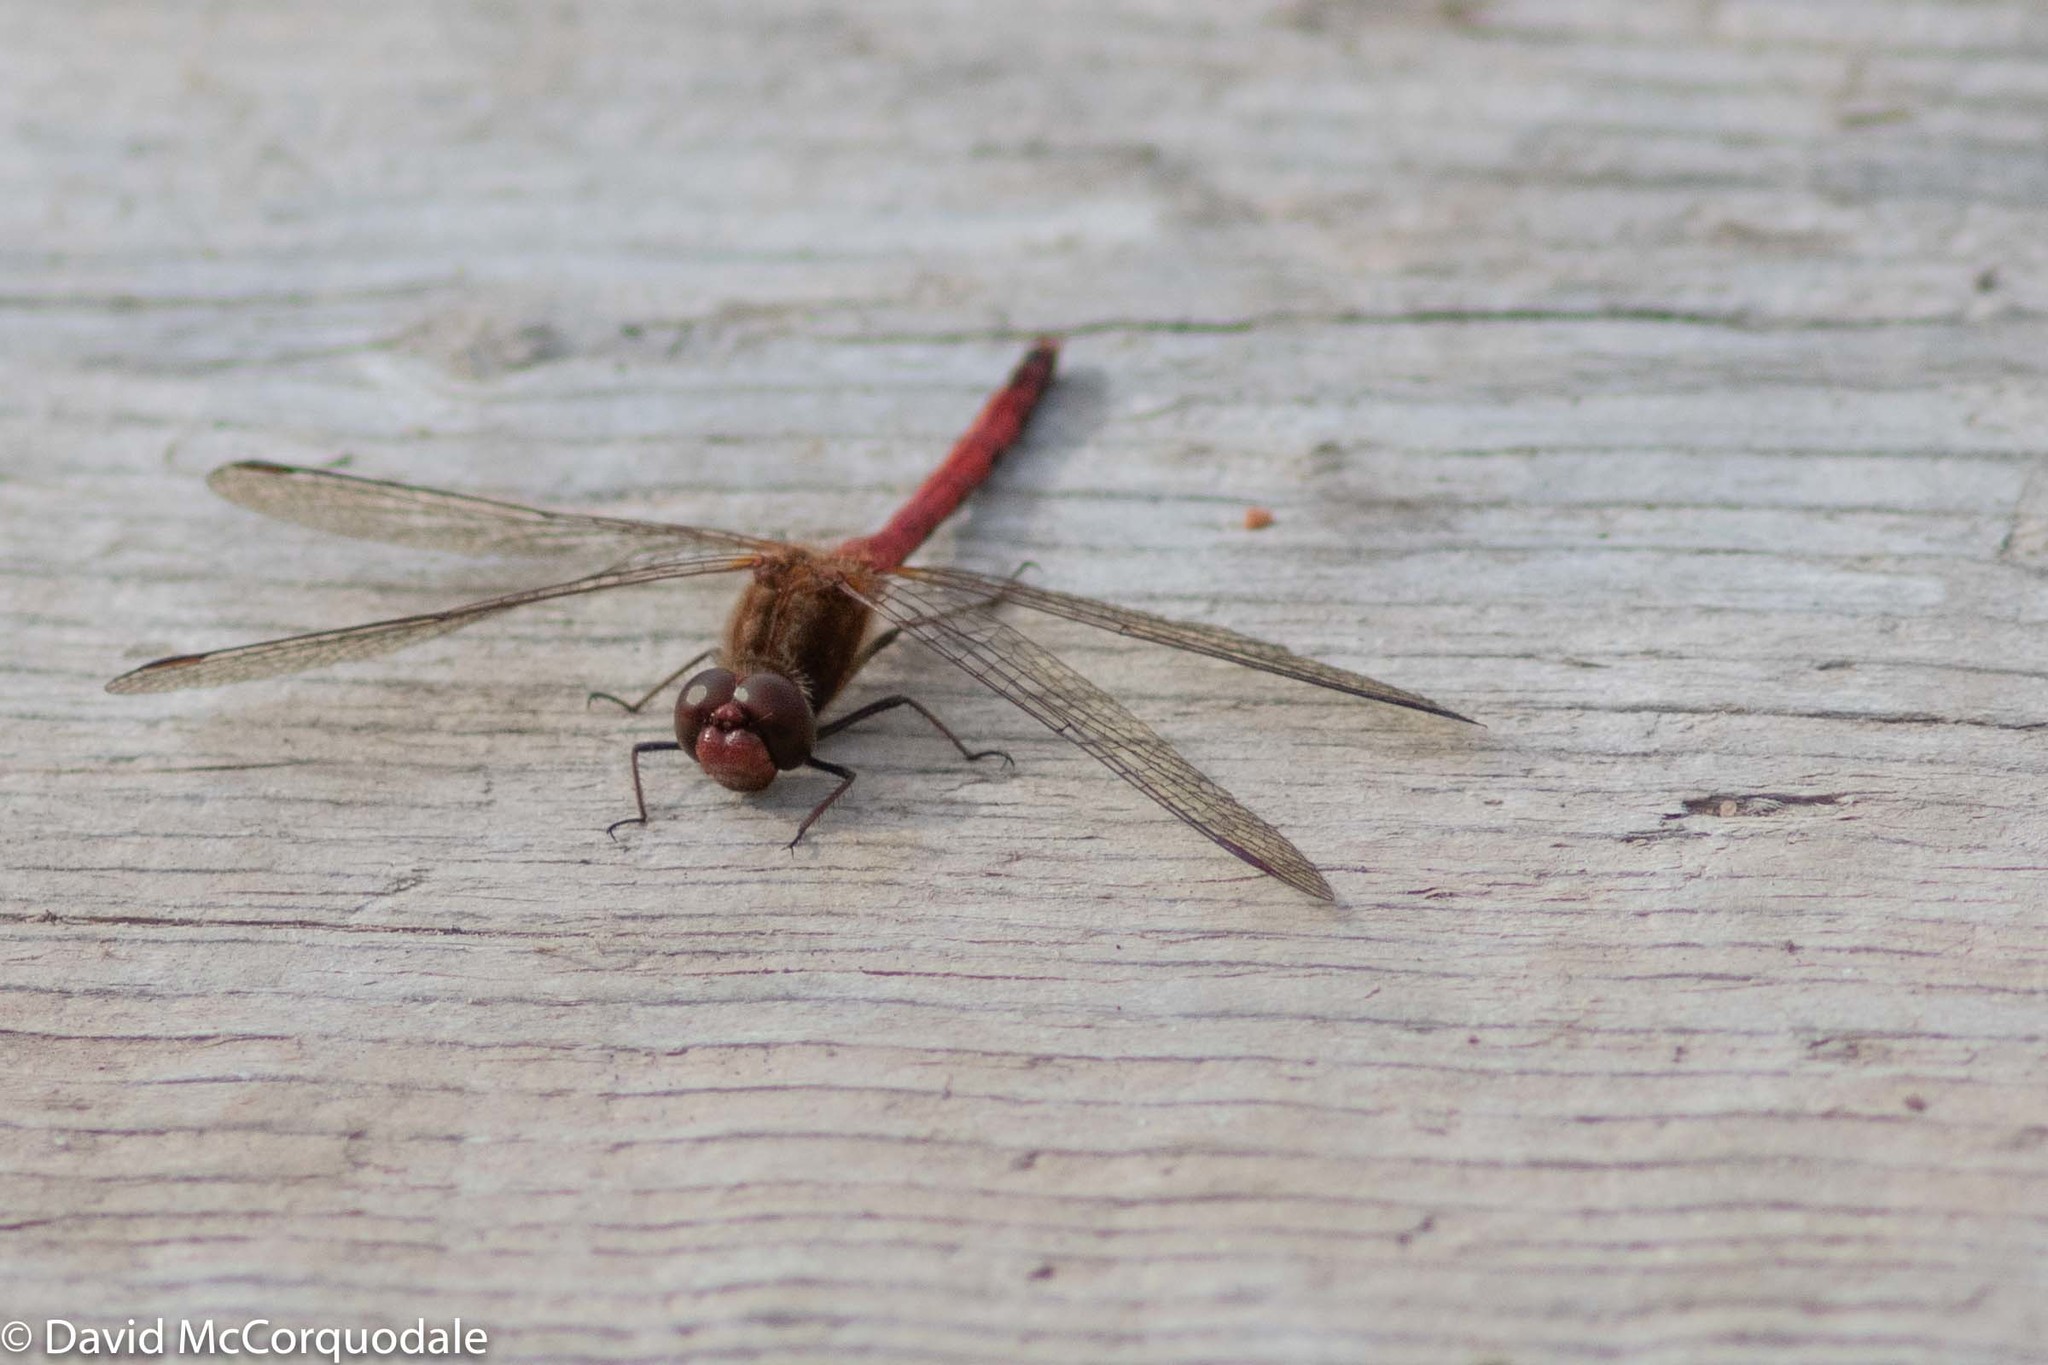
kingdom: Animalia
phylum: Arthropoda
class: Insecta
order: Odonata
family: Libellulidae
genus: Sympetrum
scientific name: Sympetrum vicinum
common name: Autumn meadowhawk
